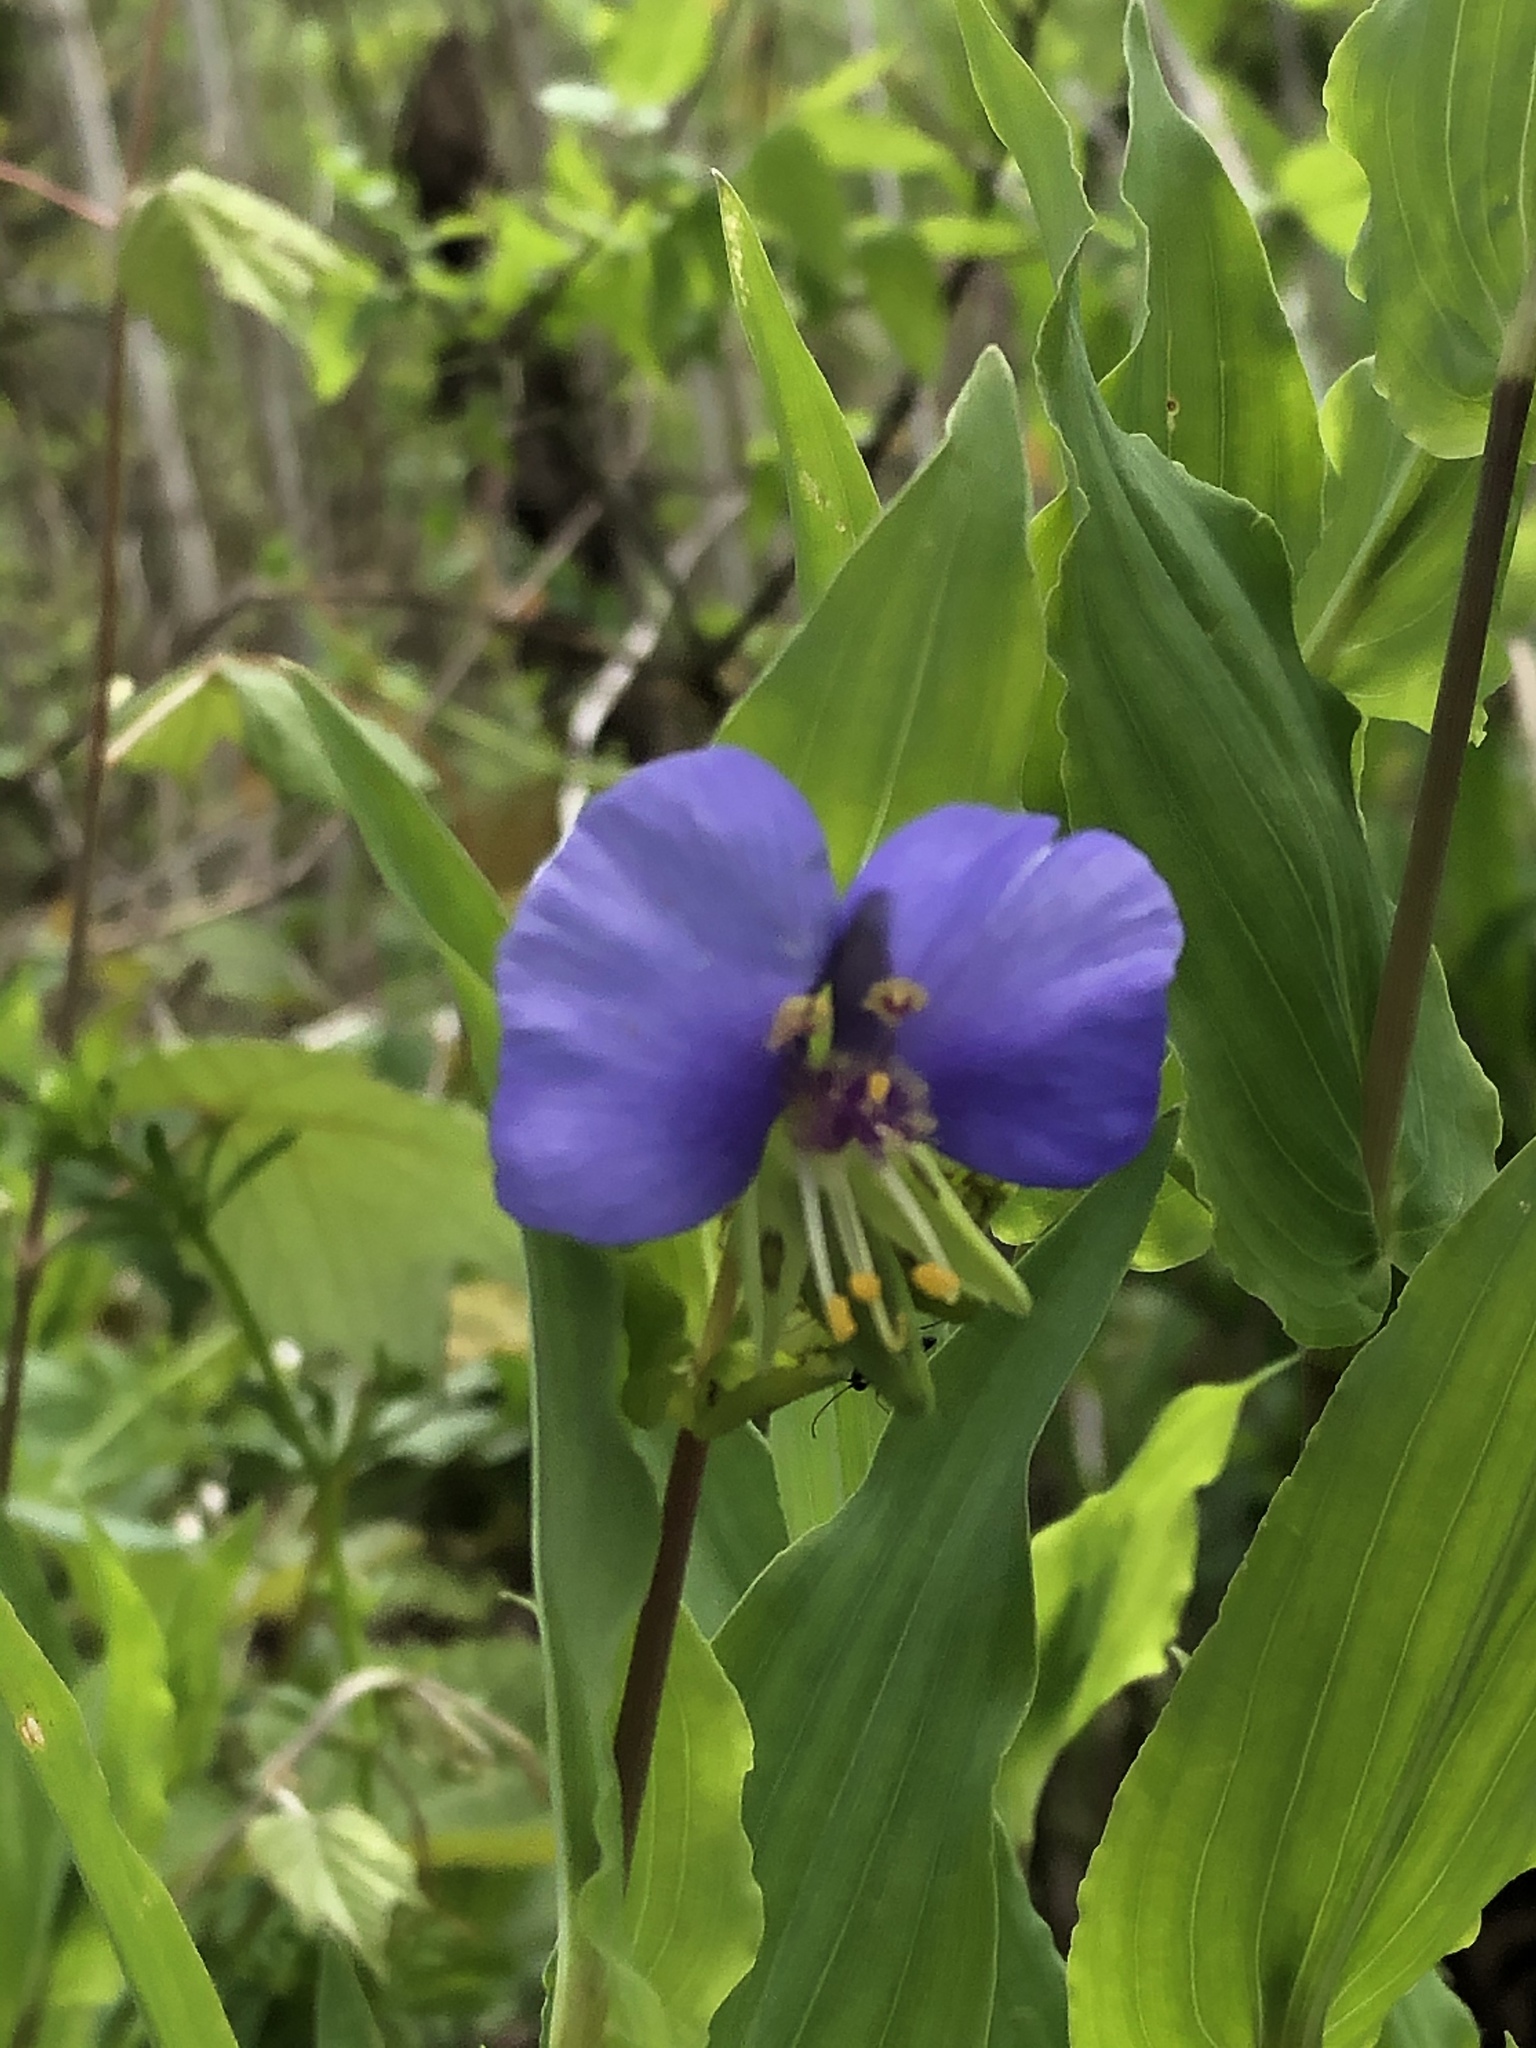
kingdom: Plantae
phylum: Tracheophyta
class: Liliopsida
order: Commelinales
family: Commelinaceae
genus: Tinantia
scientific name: Tinantia anomala
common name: False dayflower
